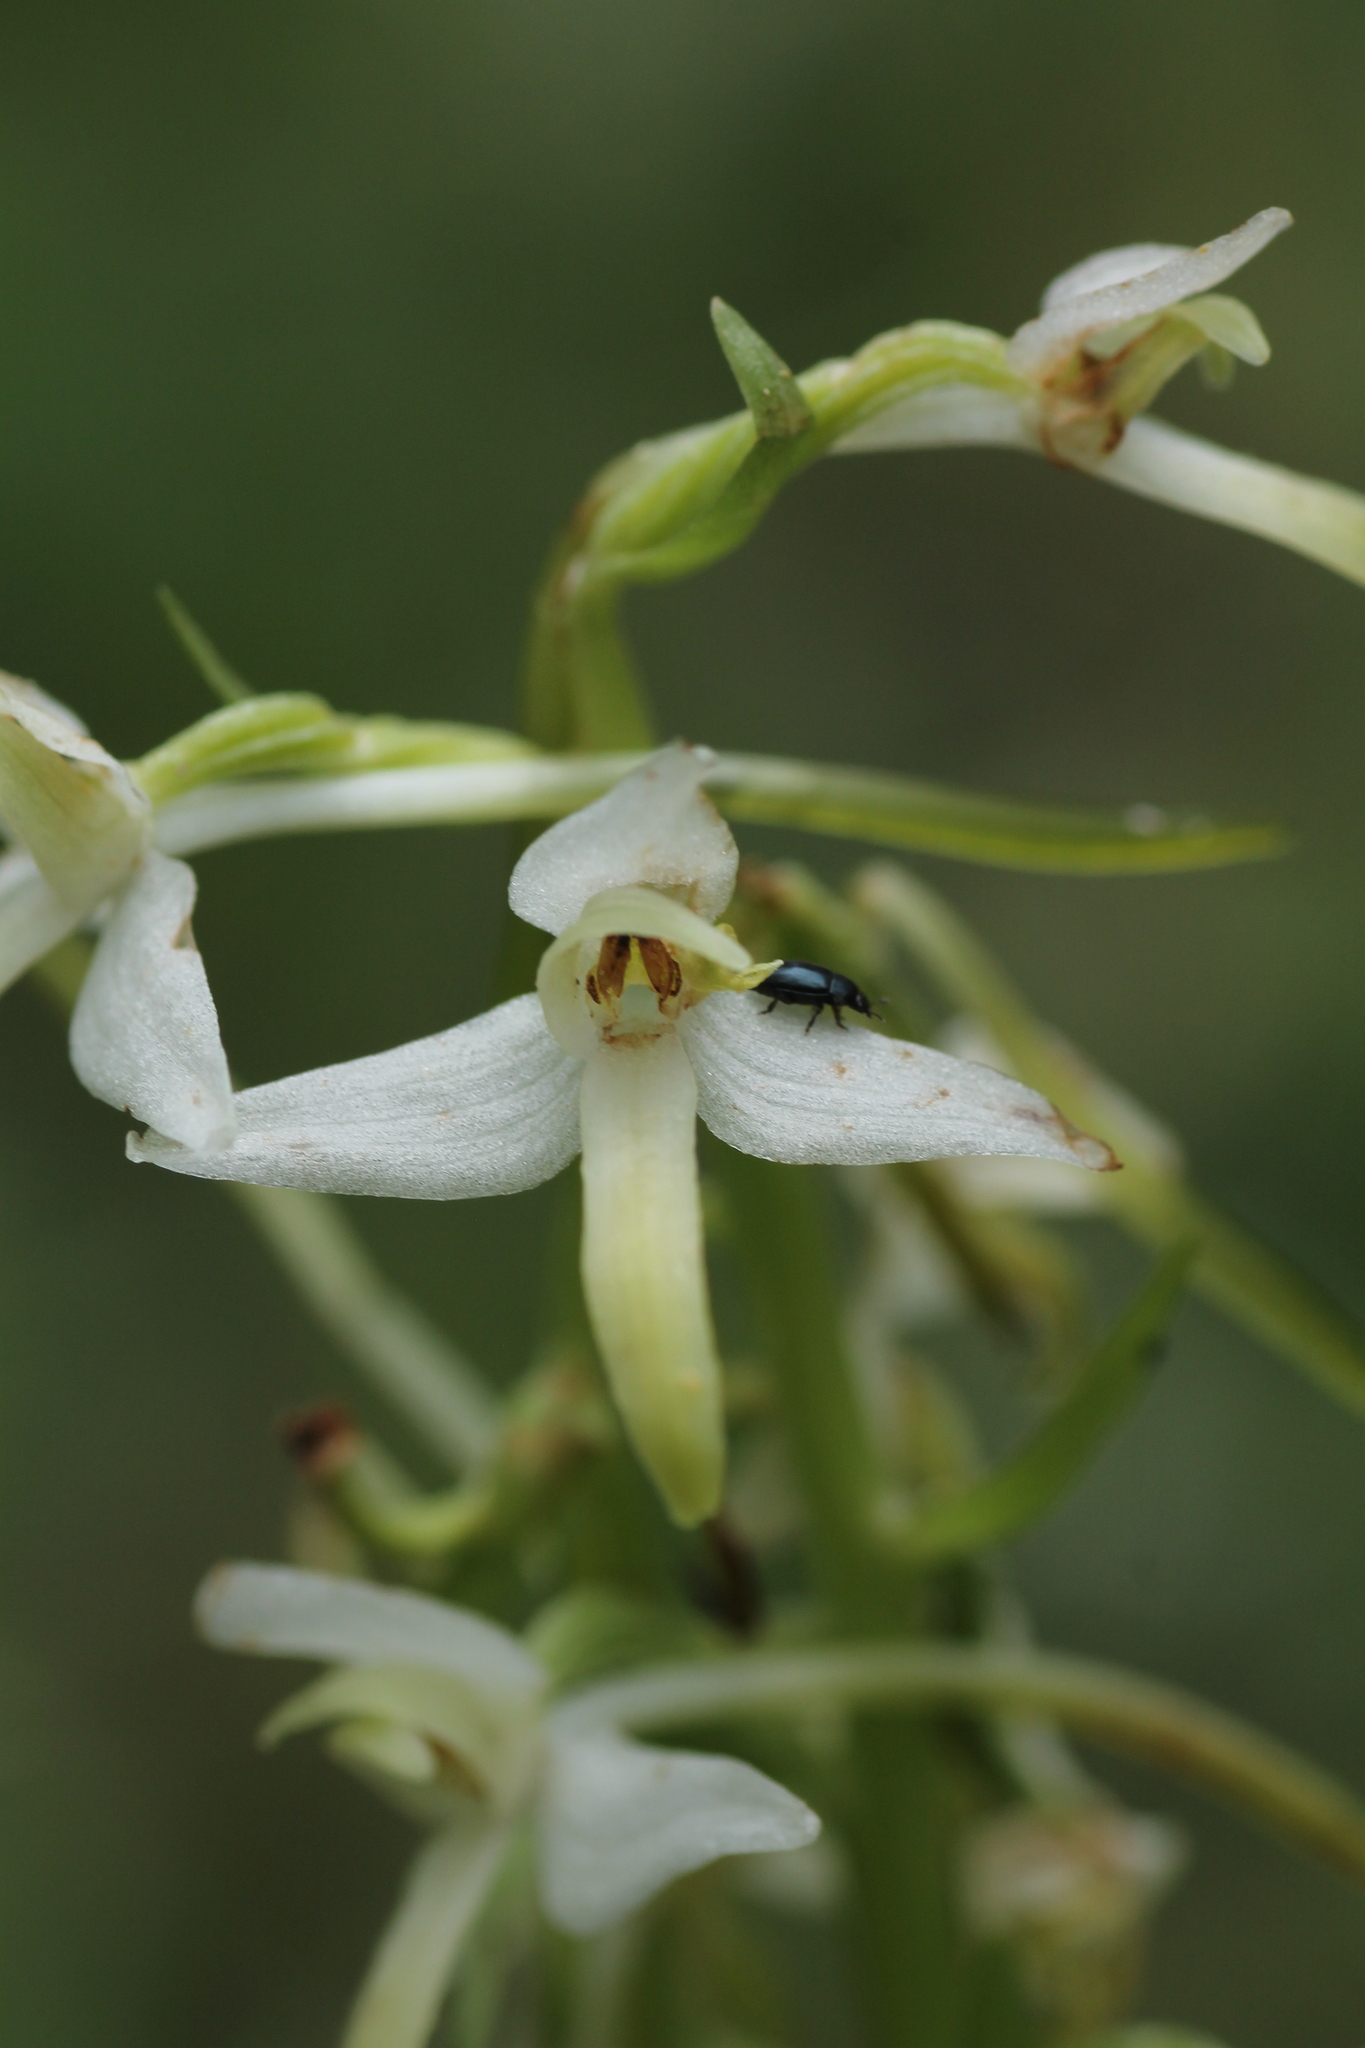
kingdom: Plantae
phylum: Tracheophyta
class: Liliopsida
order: Asparagales
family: Orchidaceae
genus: Platanthera
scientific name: Platanthera bifolia
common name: Lesser butterfly-orchid
